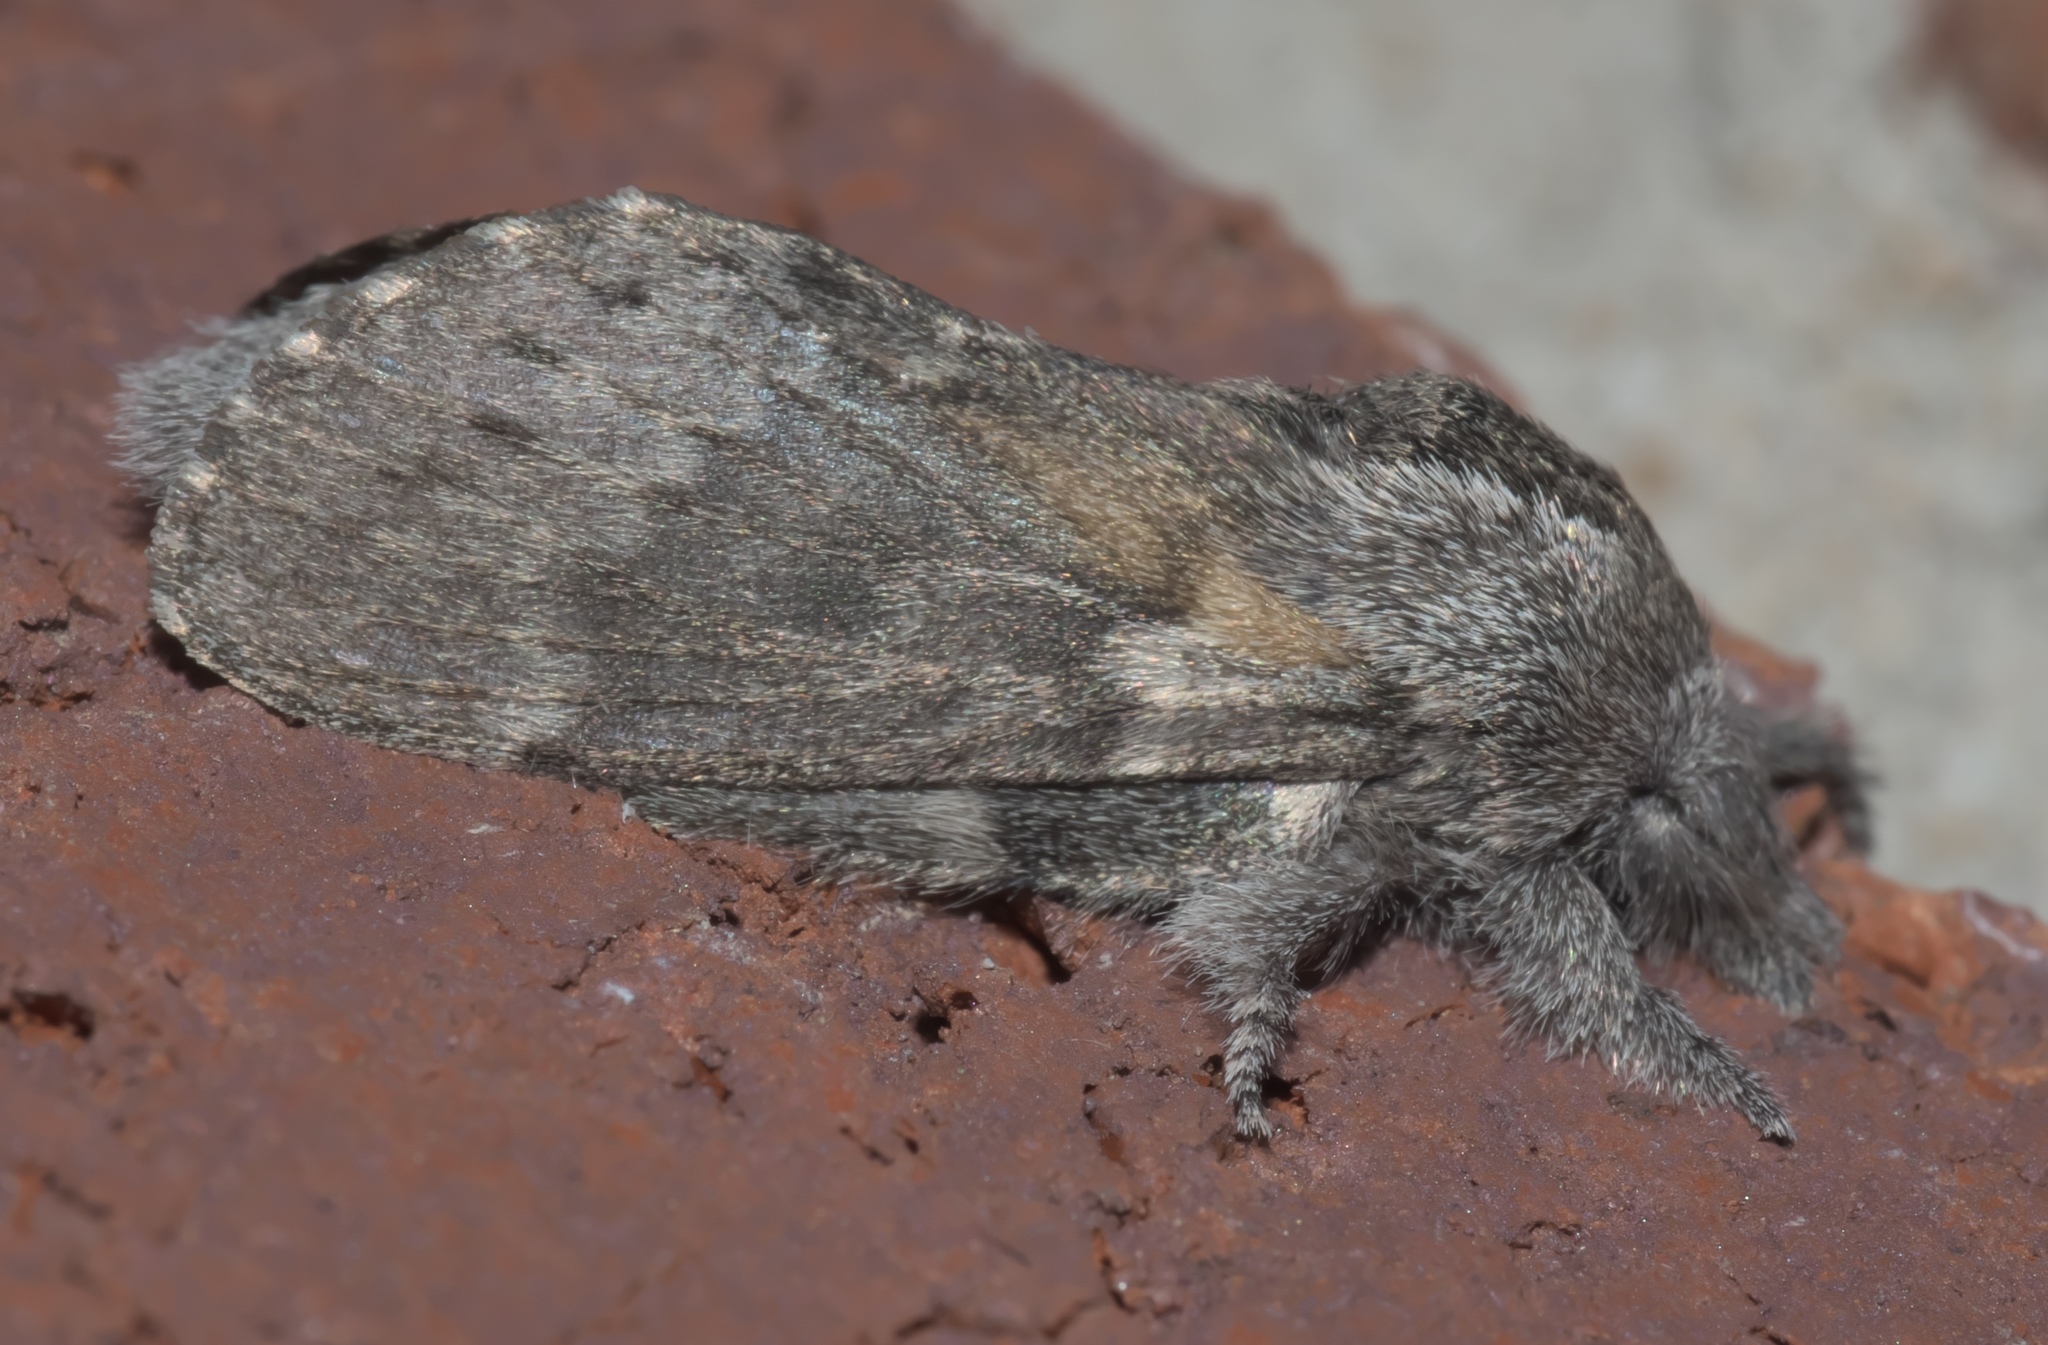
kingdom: Animalia
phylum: Arthropoda
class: Insecta
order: Lepidoptera
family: Lasiocampidae
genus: Heteropacha
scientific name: Heteropacha rileyana
